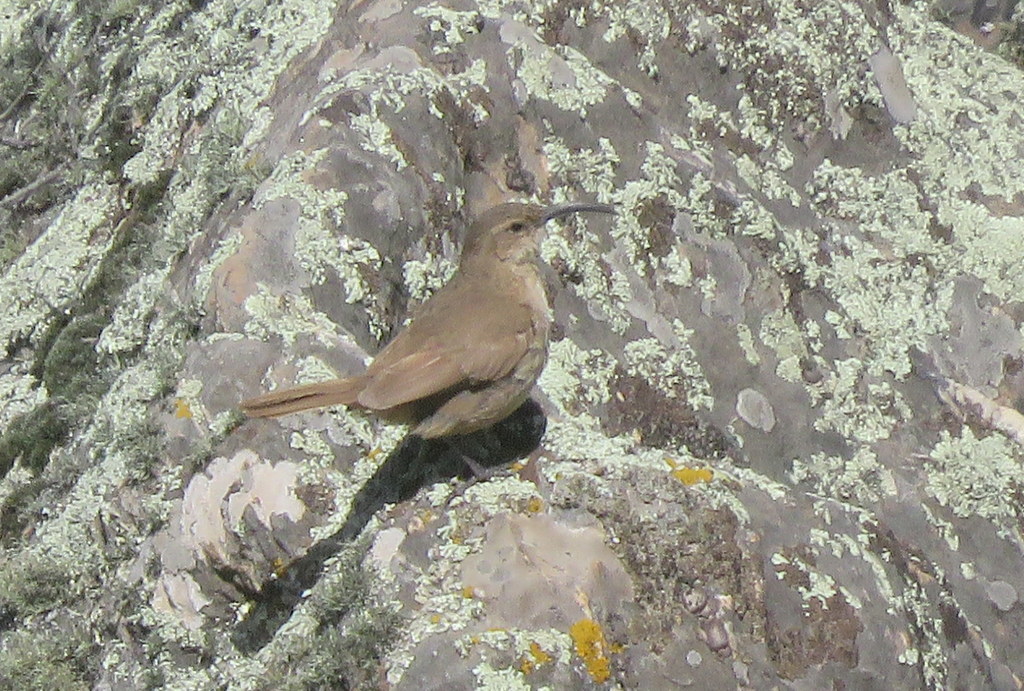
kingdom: Animalia
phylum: Chordata
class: Aves
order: Passeriformes
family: Furnariidae
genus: Upucerthia
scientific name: Upucerthia validirostris
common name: Buff-breasted earthcreeper
